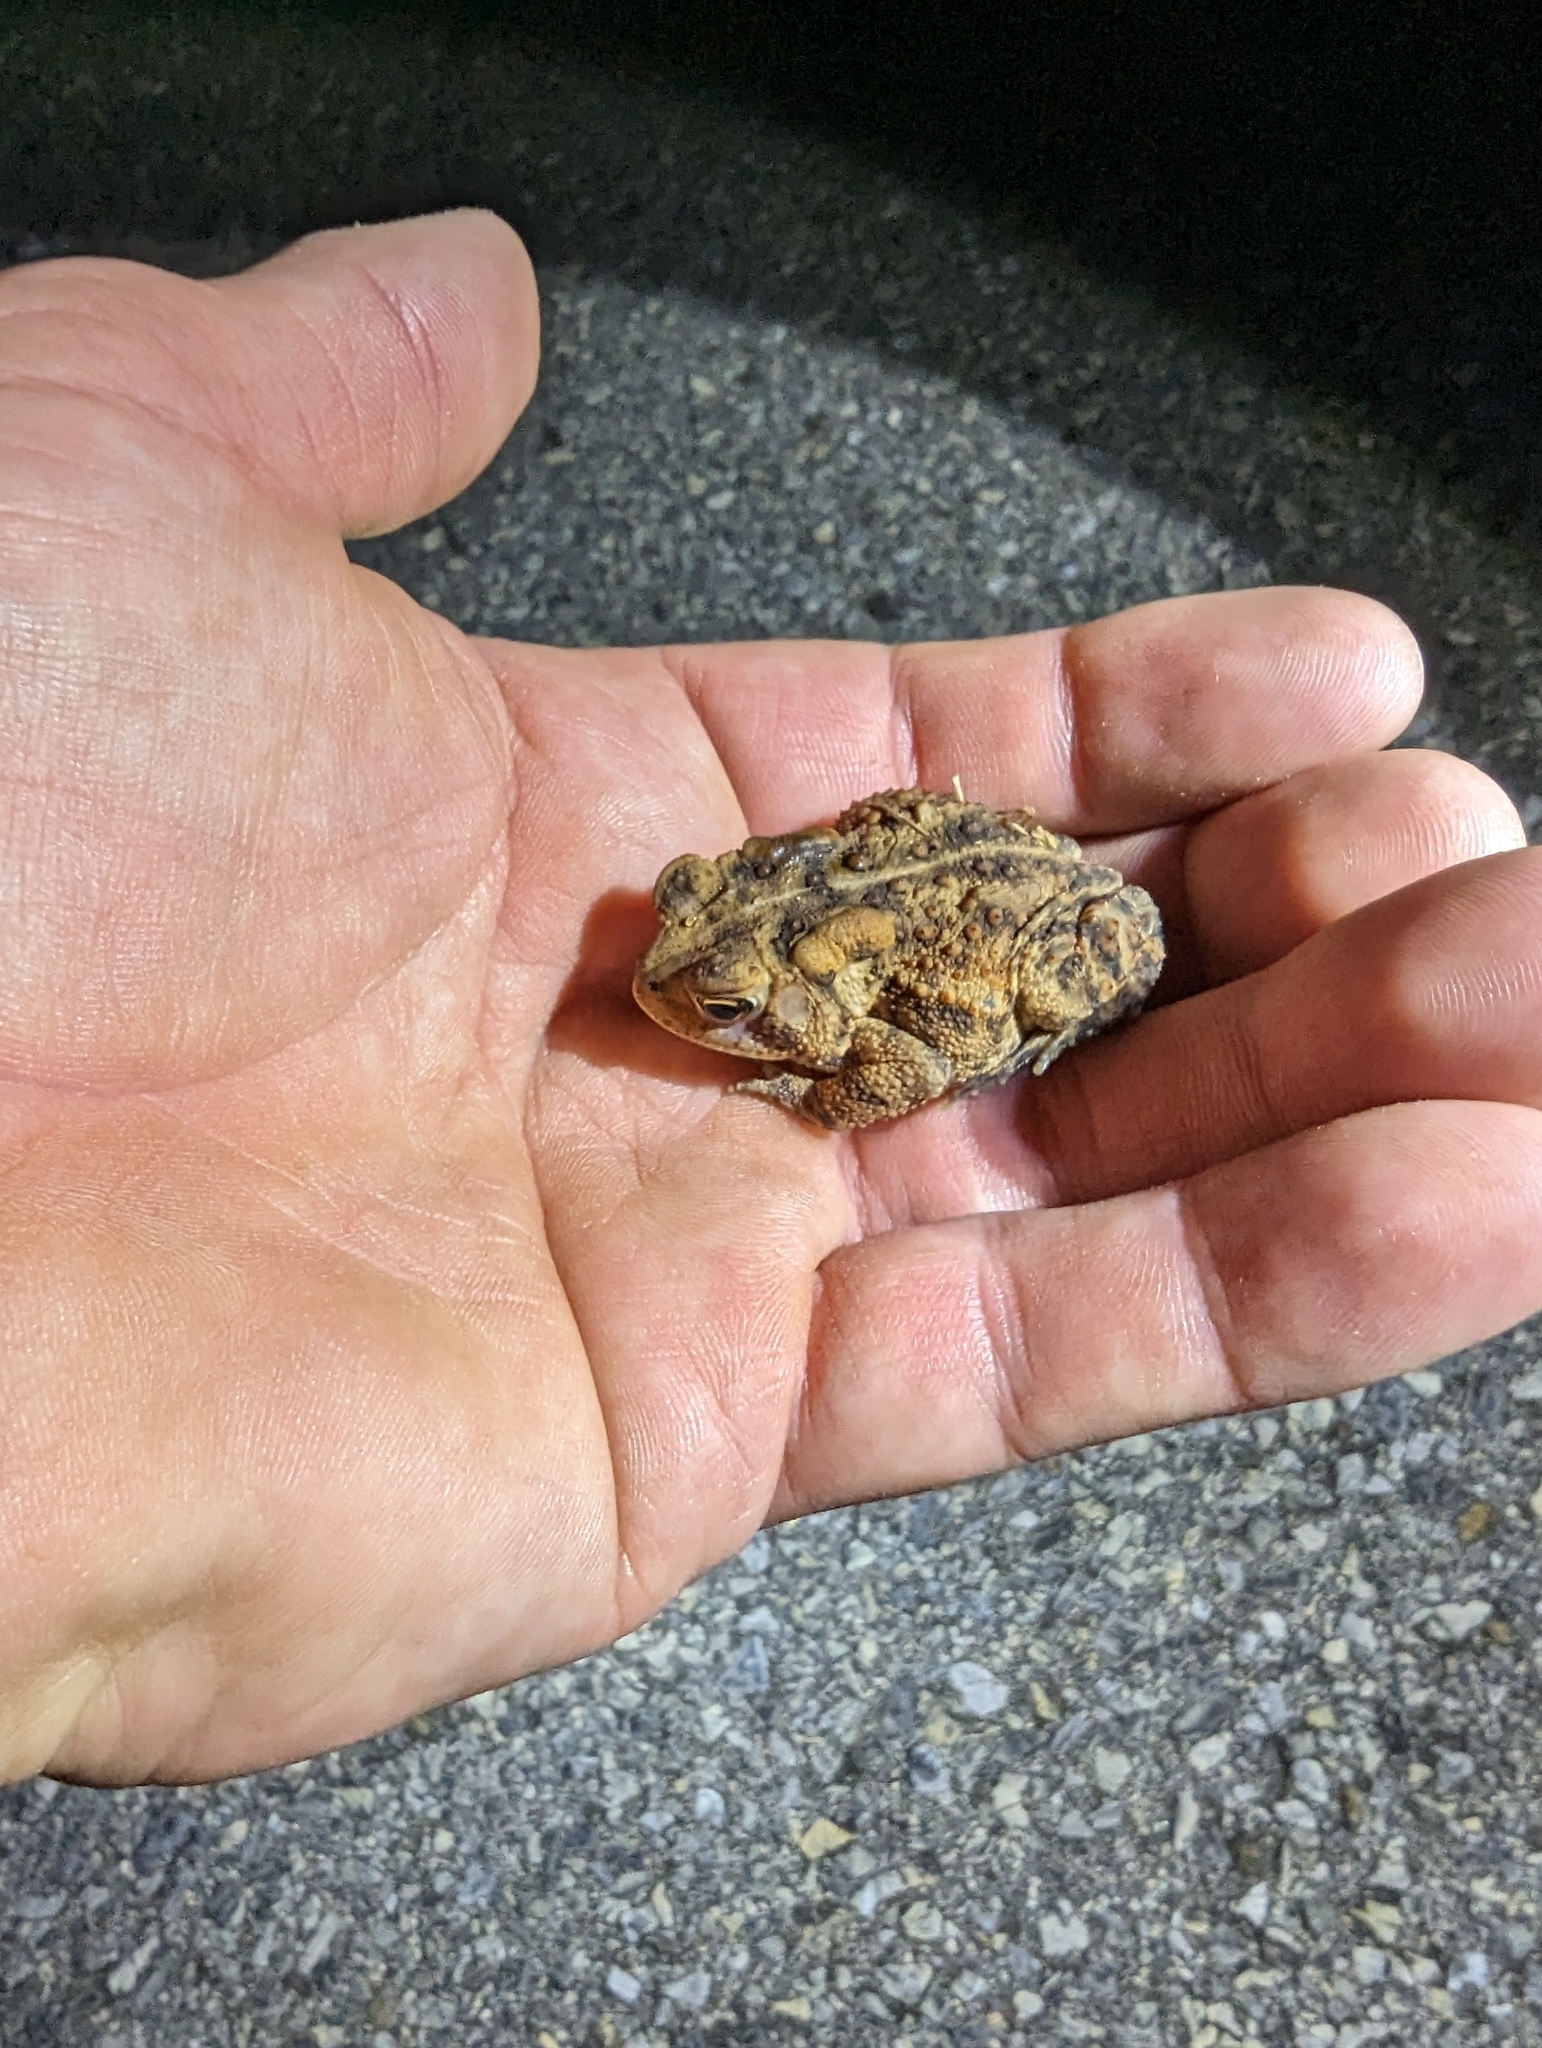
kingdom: Animalia
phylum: Chordata
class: Amphibia
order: Anura
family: Bufonidae
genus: Anaxyrus
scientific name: Anaxyrus americanus
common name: American toad
